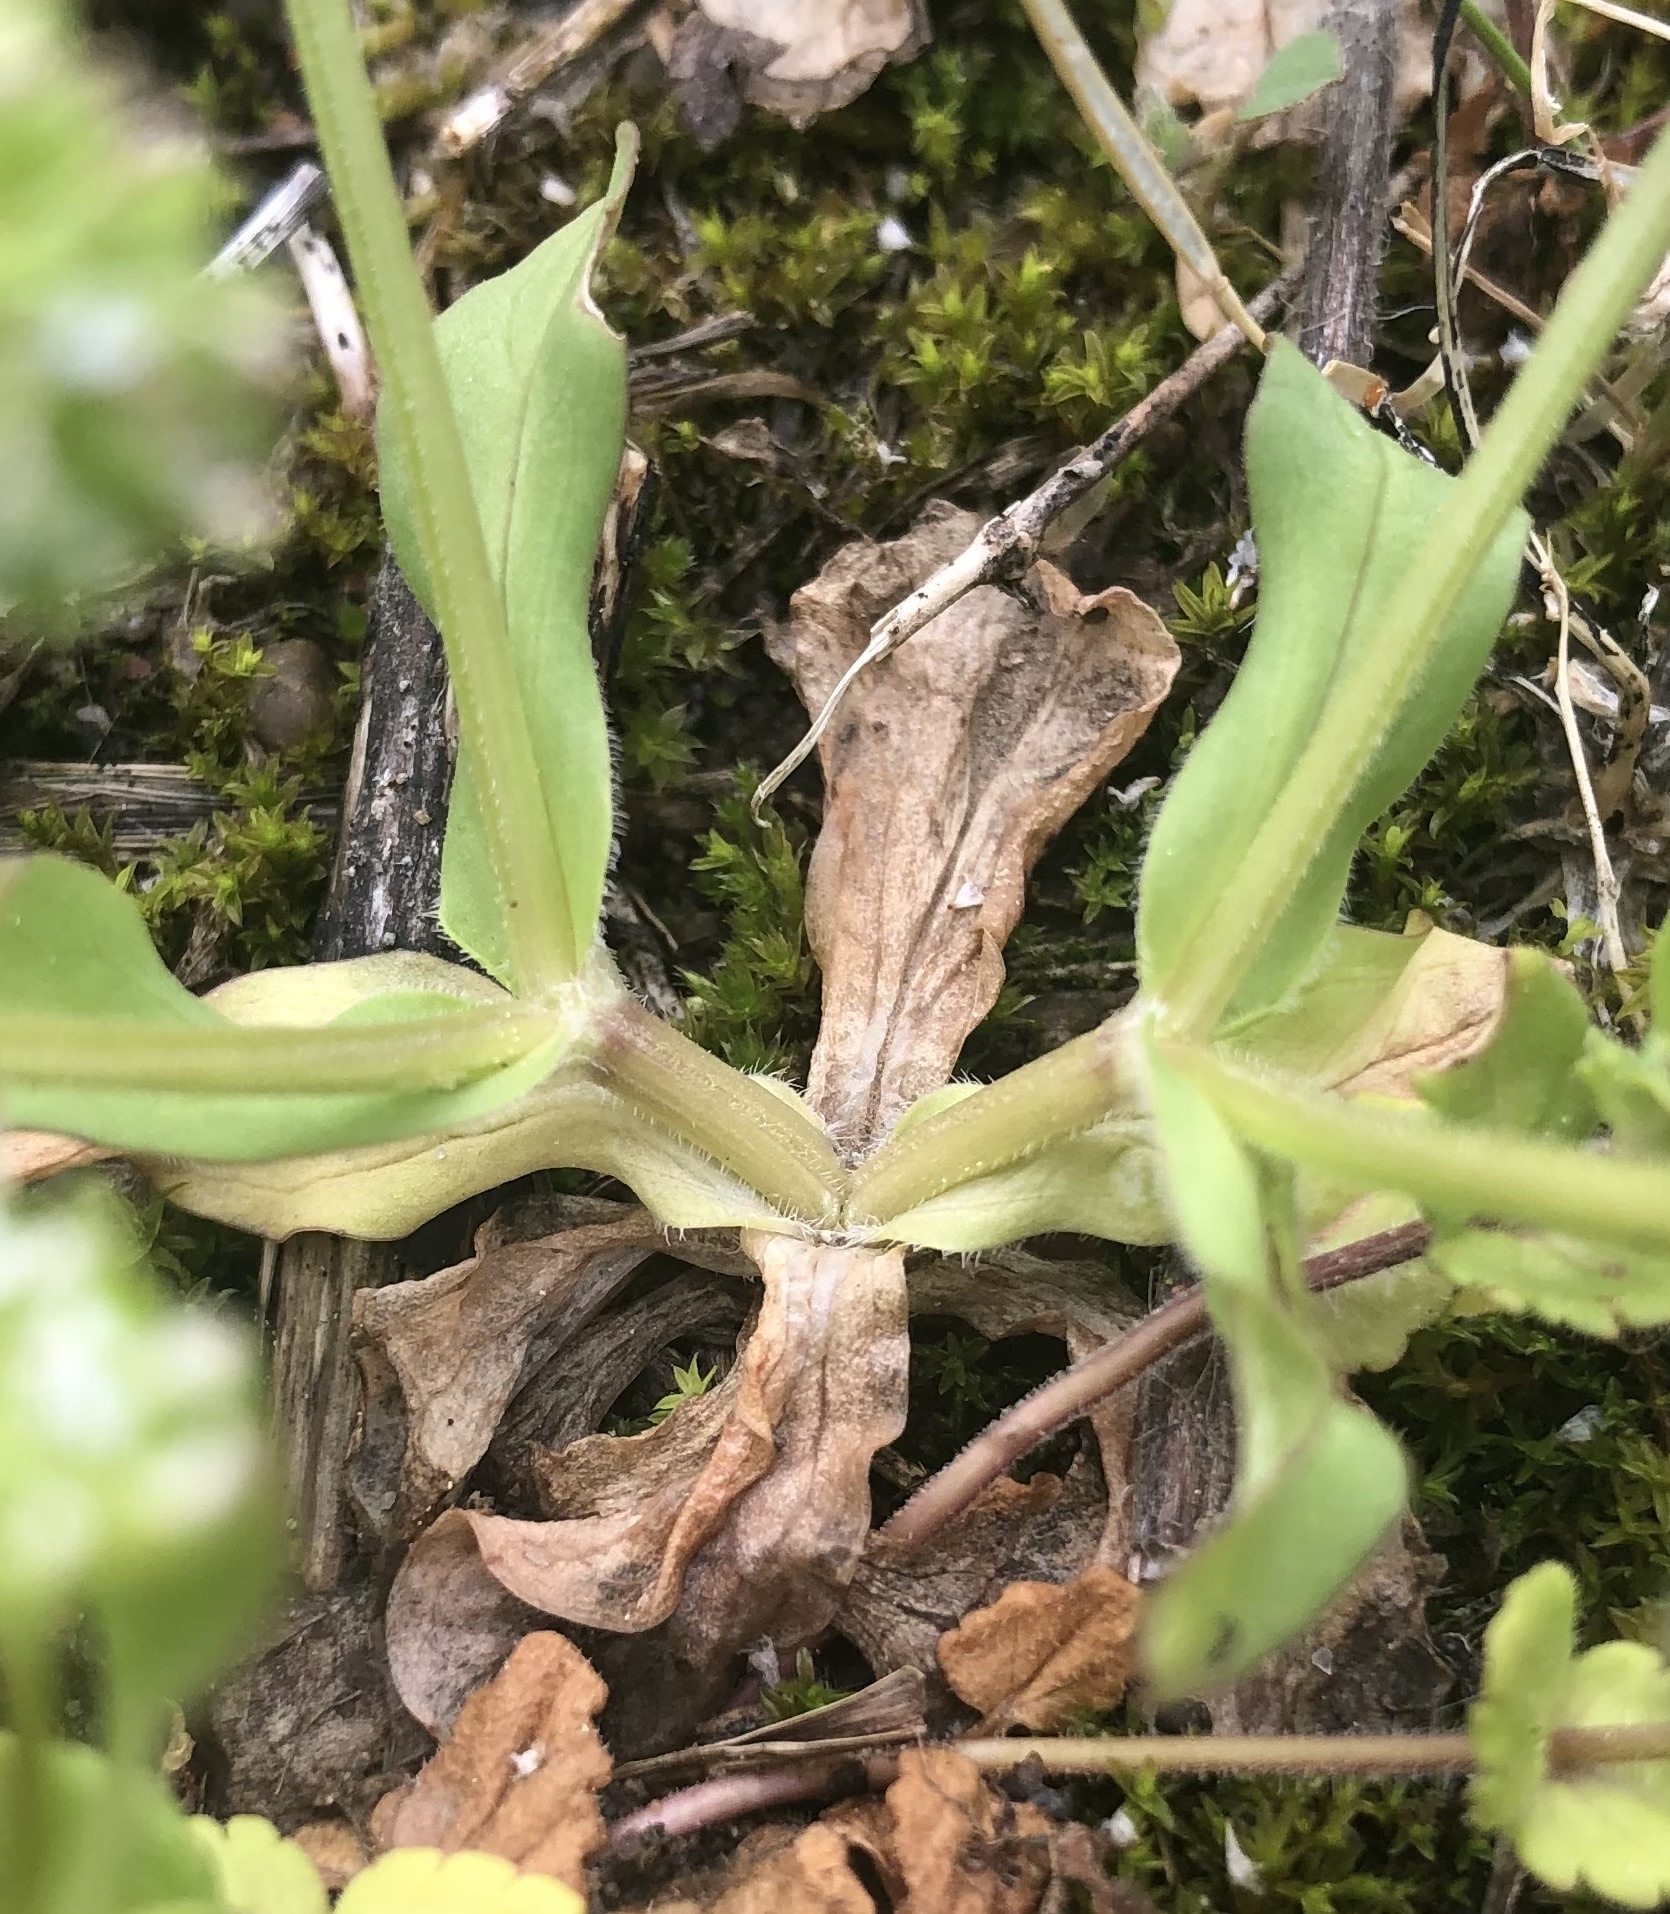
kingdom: Plantae
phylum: Tracheophyta
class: Magnoliopsida
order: Dipsacales
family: Caprifoliaceae
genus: Valerianella
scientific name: Valerianella locusta
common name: Common cornsalad
